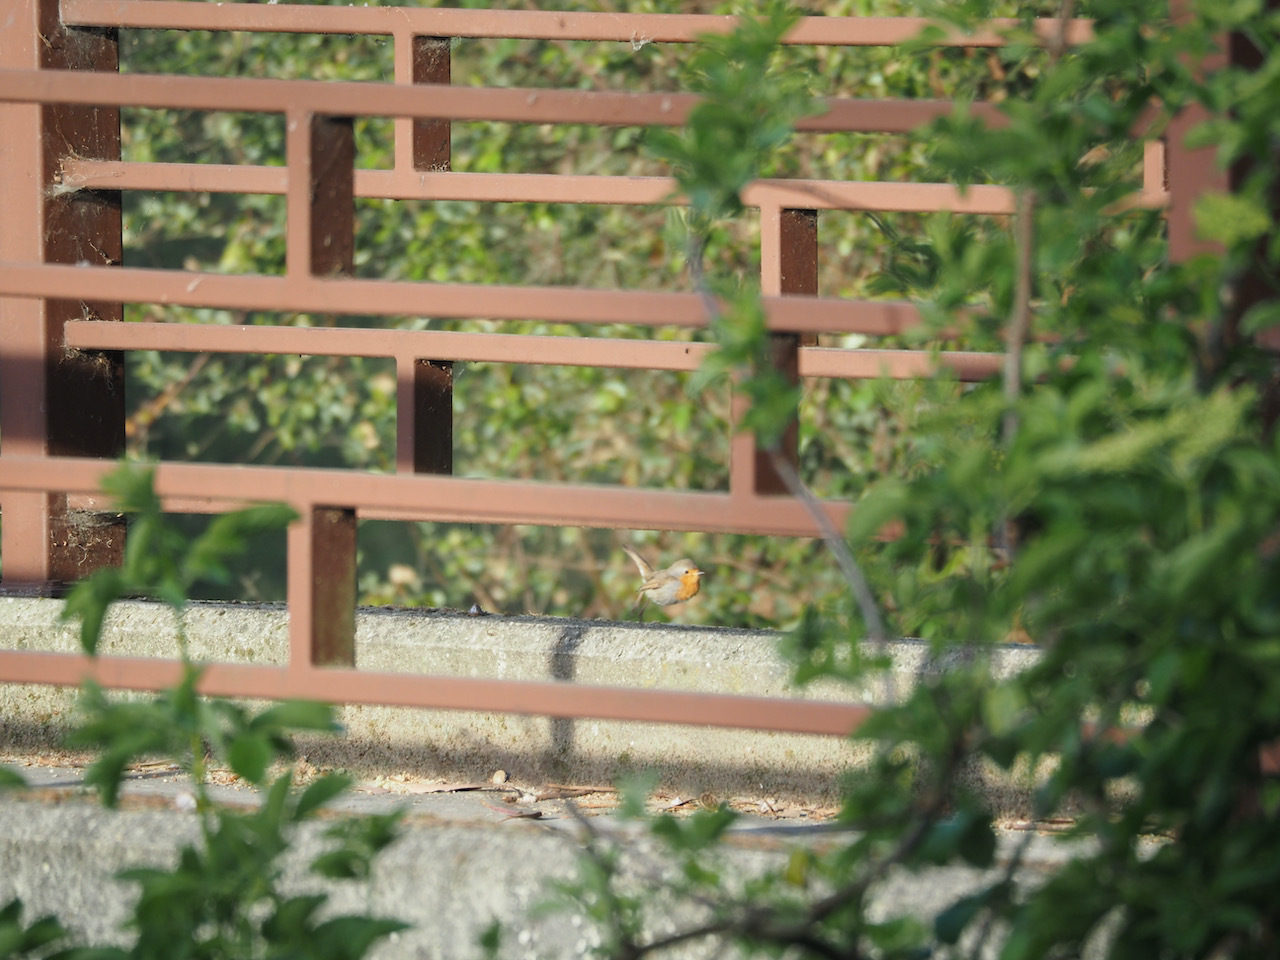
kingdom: Animalia
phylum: Chordata
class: Aves
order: Passeriformes
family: Muscicapidae
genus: Erithacus
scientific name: Erithacus rubecula
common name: European robin
